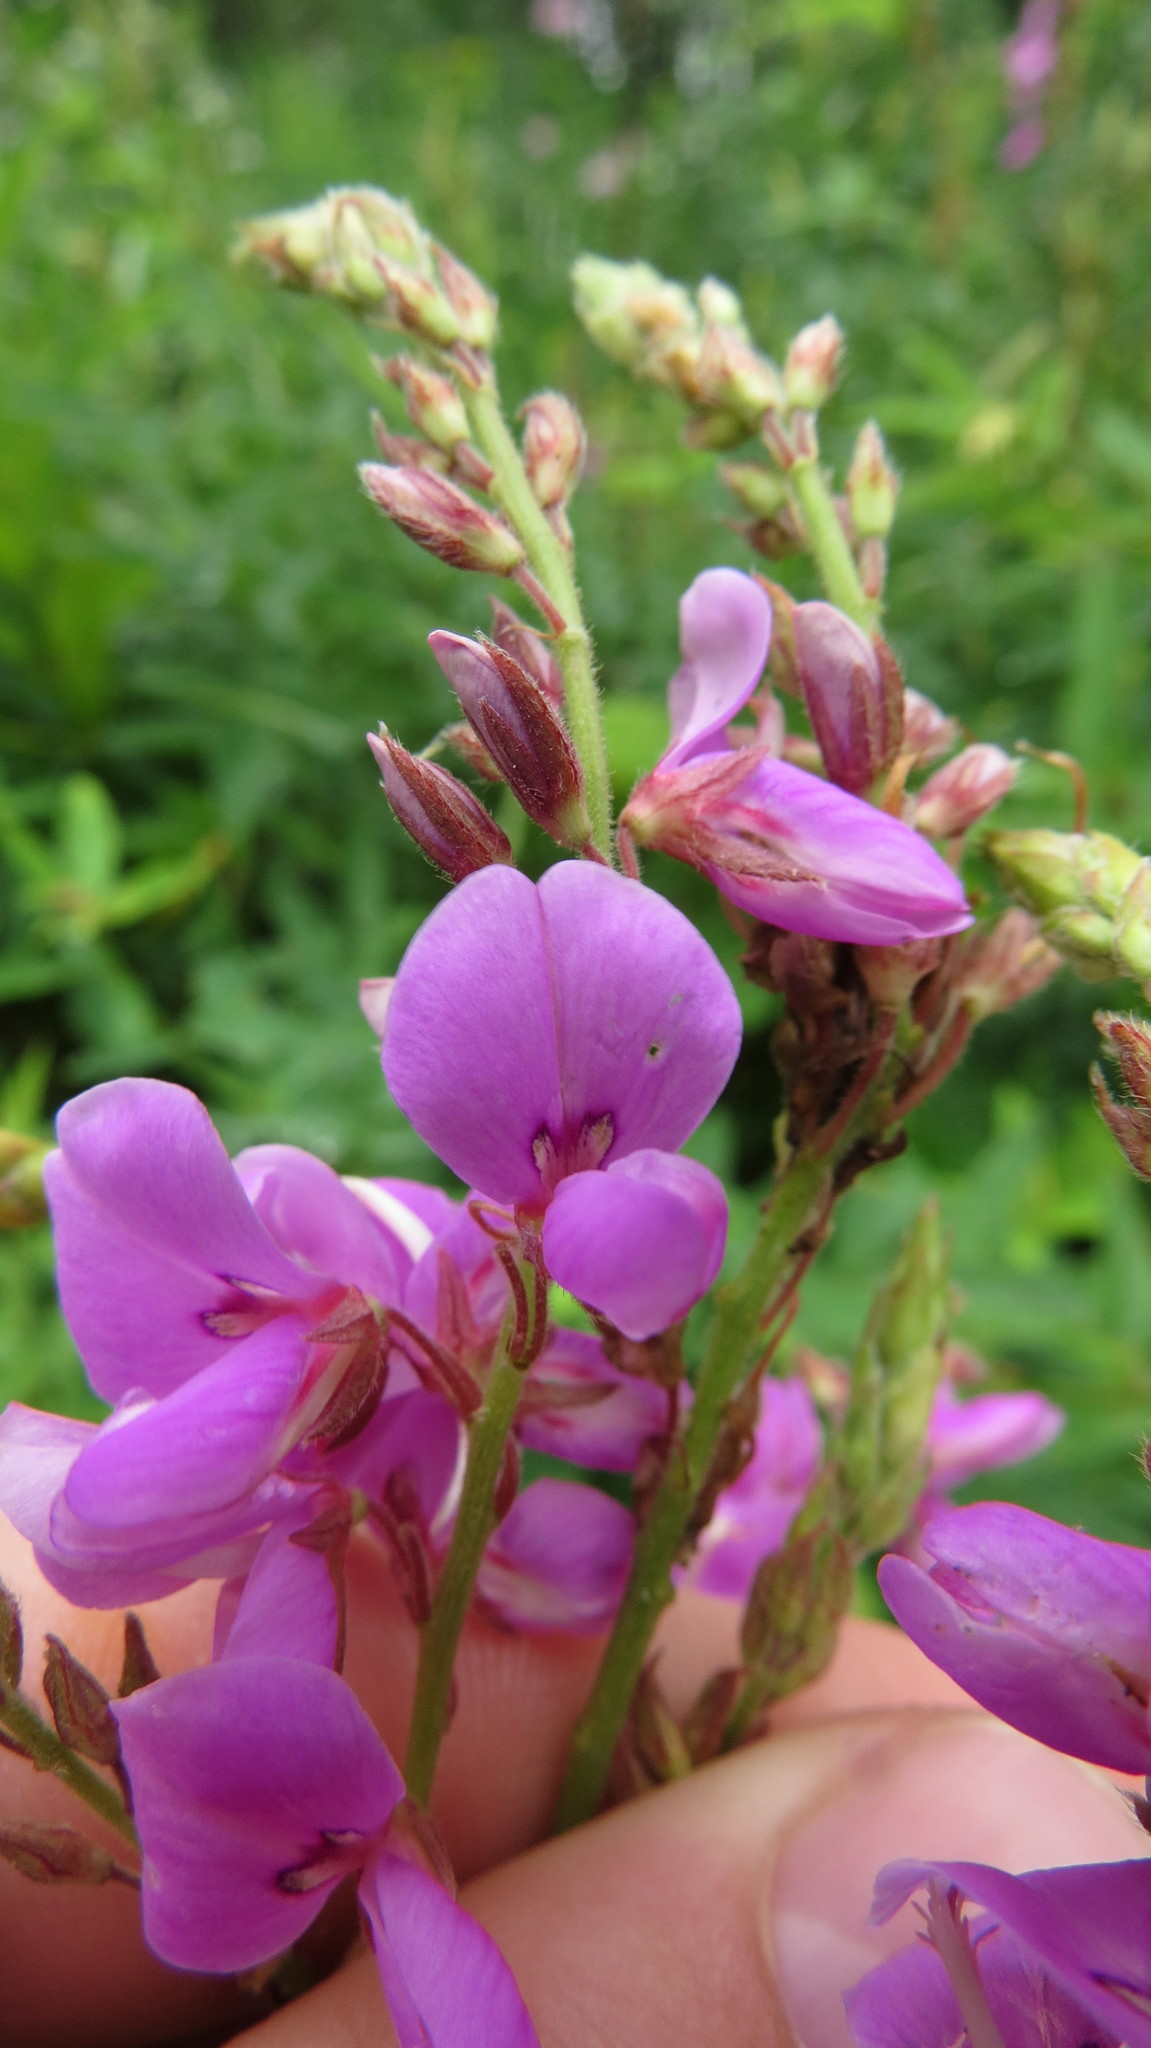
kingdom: Plantae
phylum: Tracheophyta
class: Magnoliopsida
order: Fabales
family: Fabaceae
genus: Desmodium
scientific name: Desmodium canadense
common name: Canada tick-trefoil
